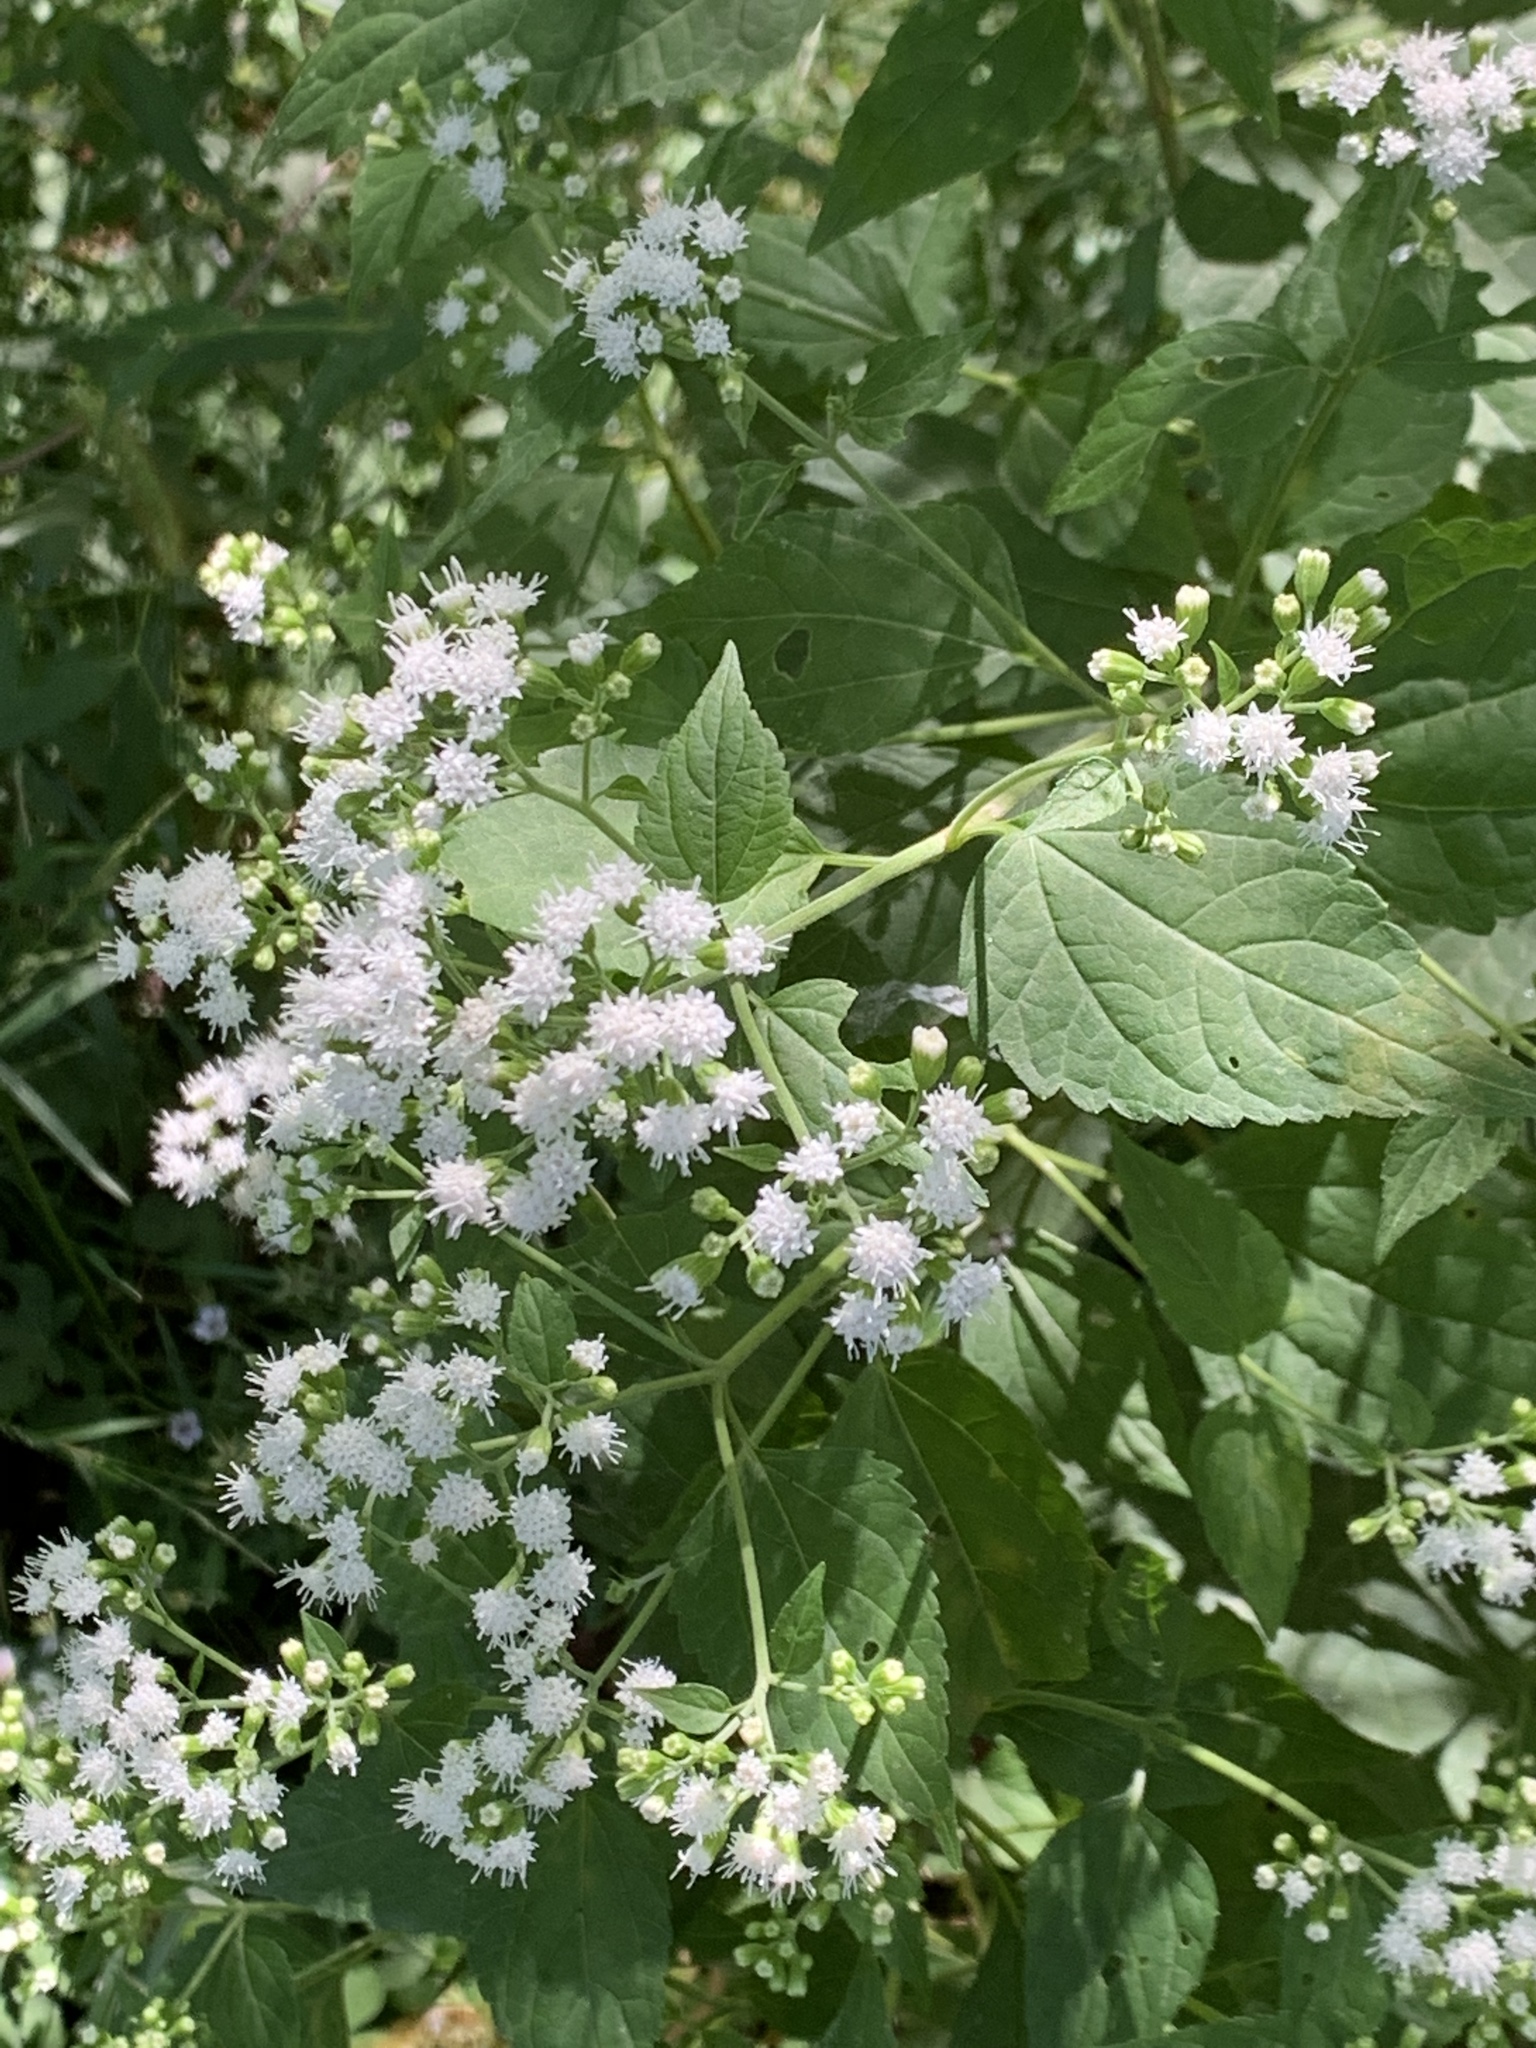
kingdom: Plantae
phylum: Tracheophyta
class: Magnoliopsida
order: Asterales
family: Asteraceae
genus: Ageratina
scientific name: Ageratina altissima
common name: White snakeroot
